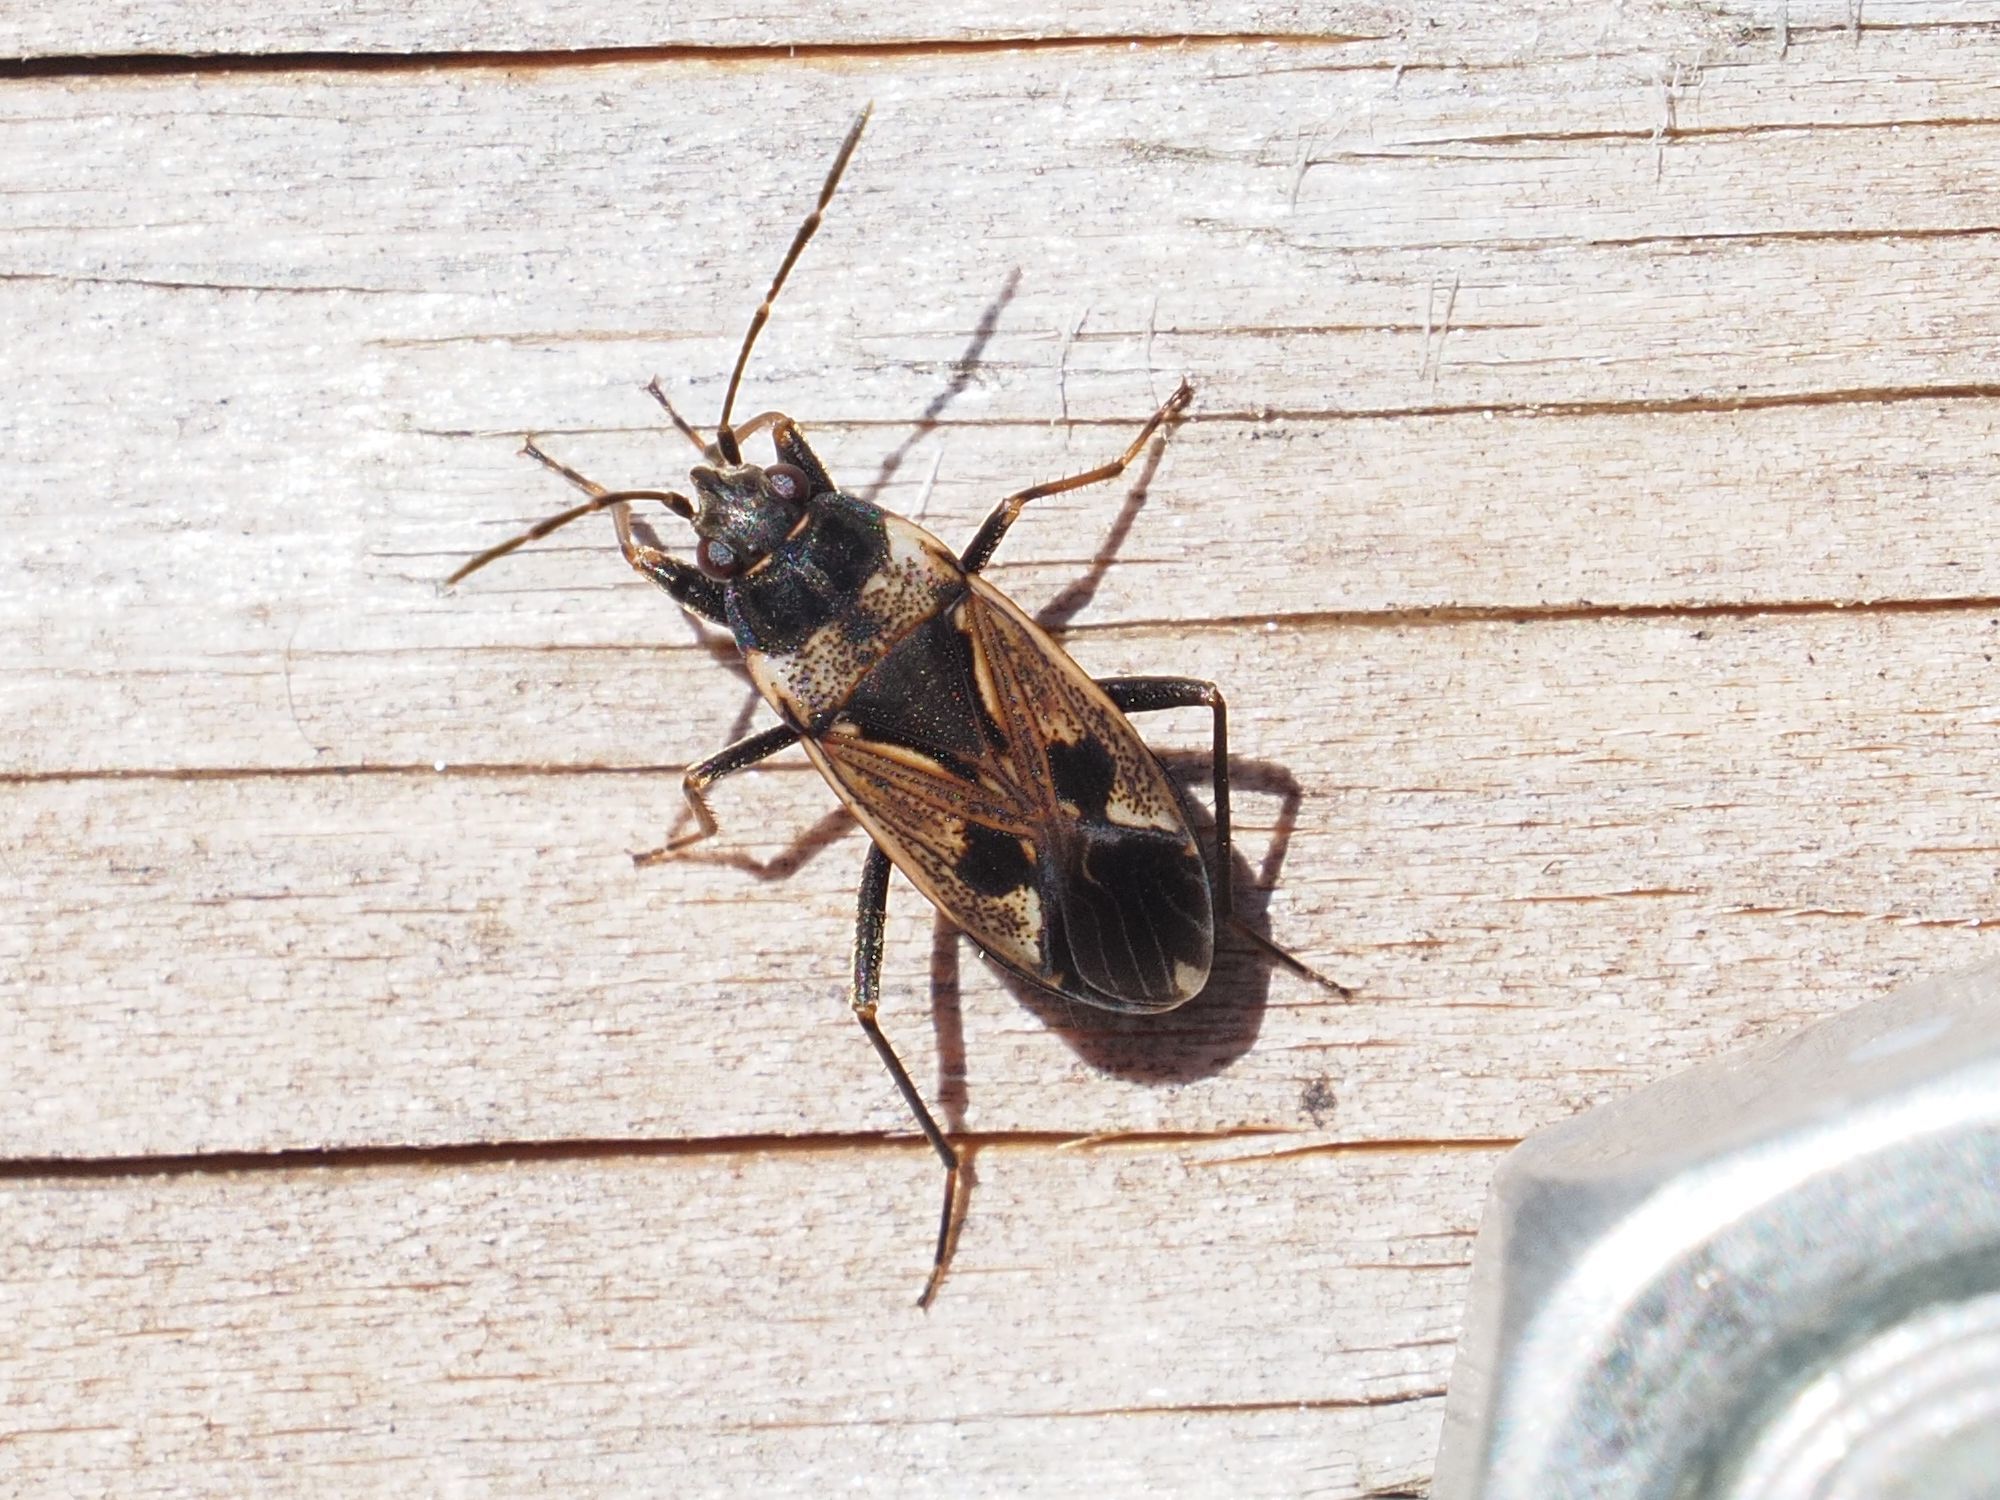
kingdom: Animalia
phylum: Arthropoda
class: Insecta
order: Hemiptera
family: Rhyparochromidae
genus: Rhyparochromus
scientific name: Rhyparochromus vulgaris
